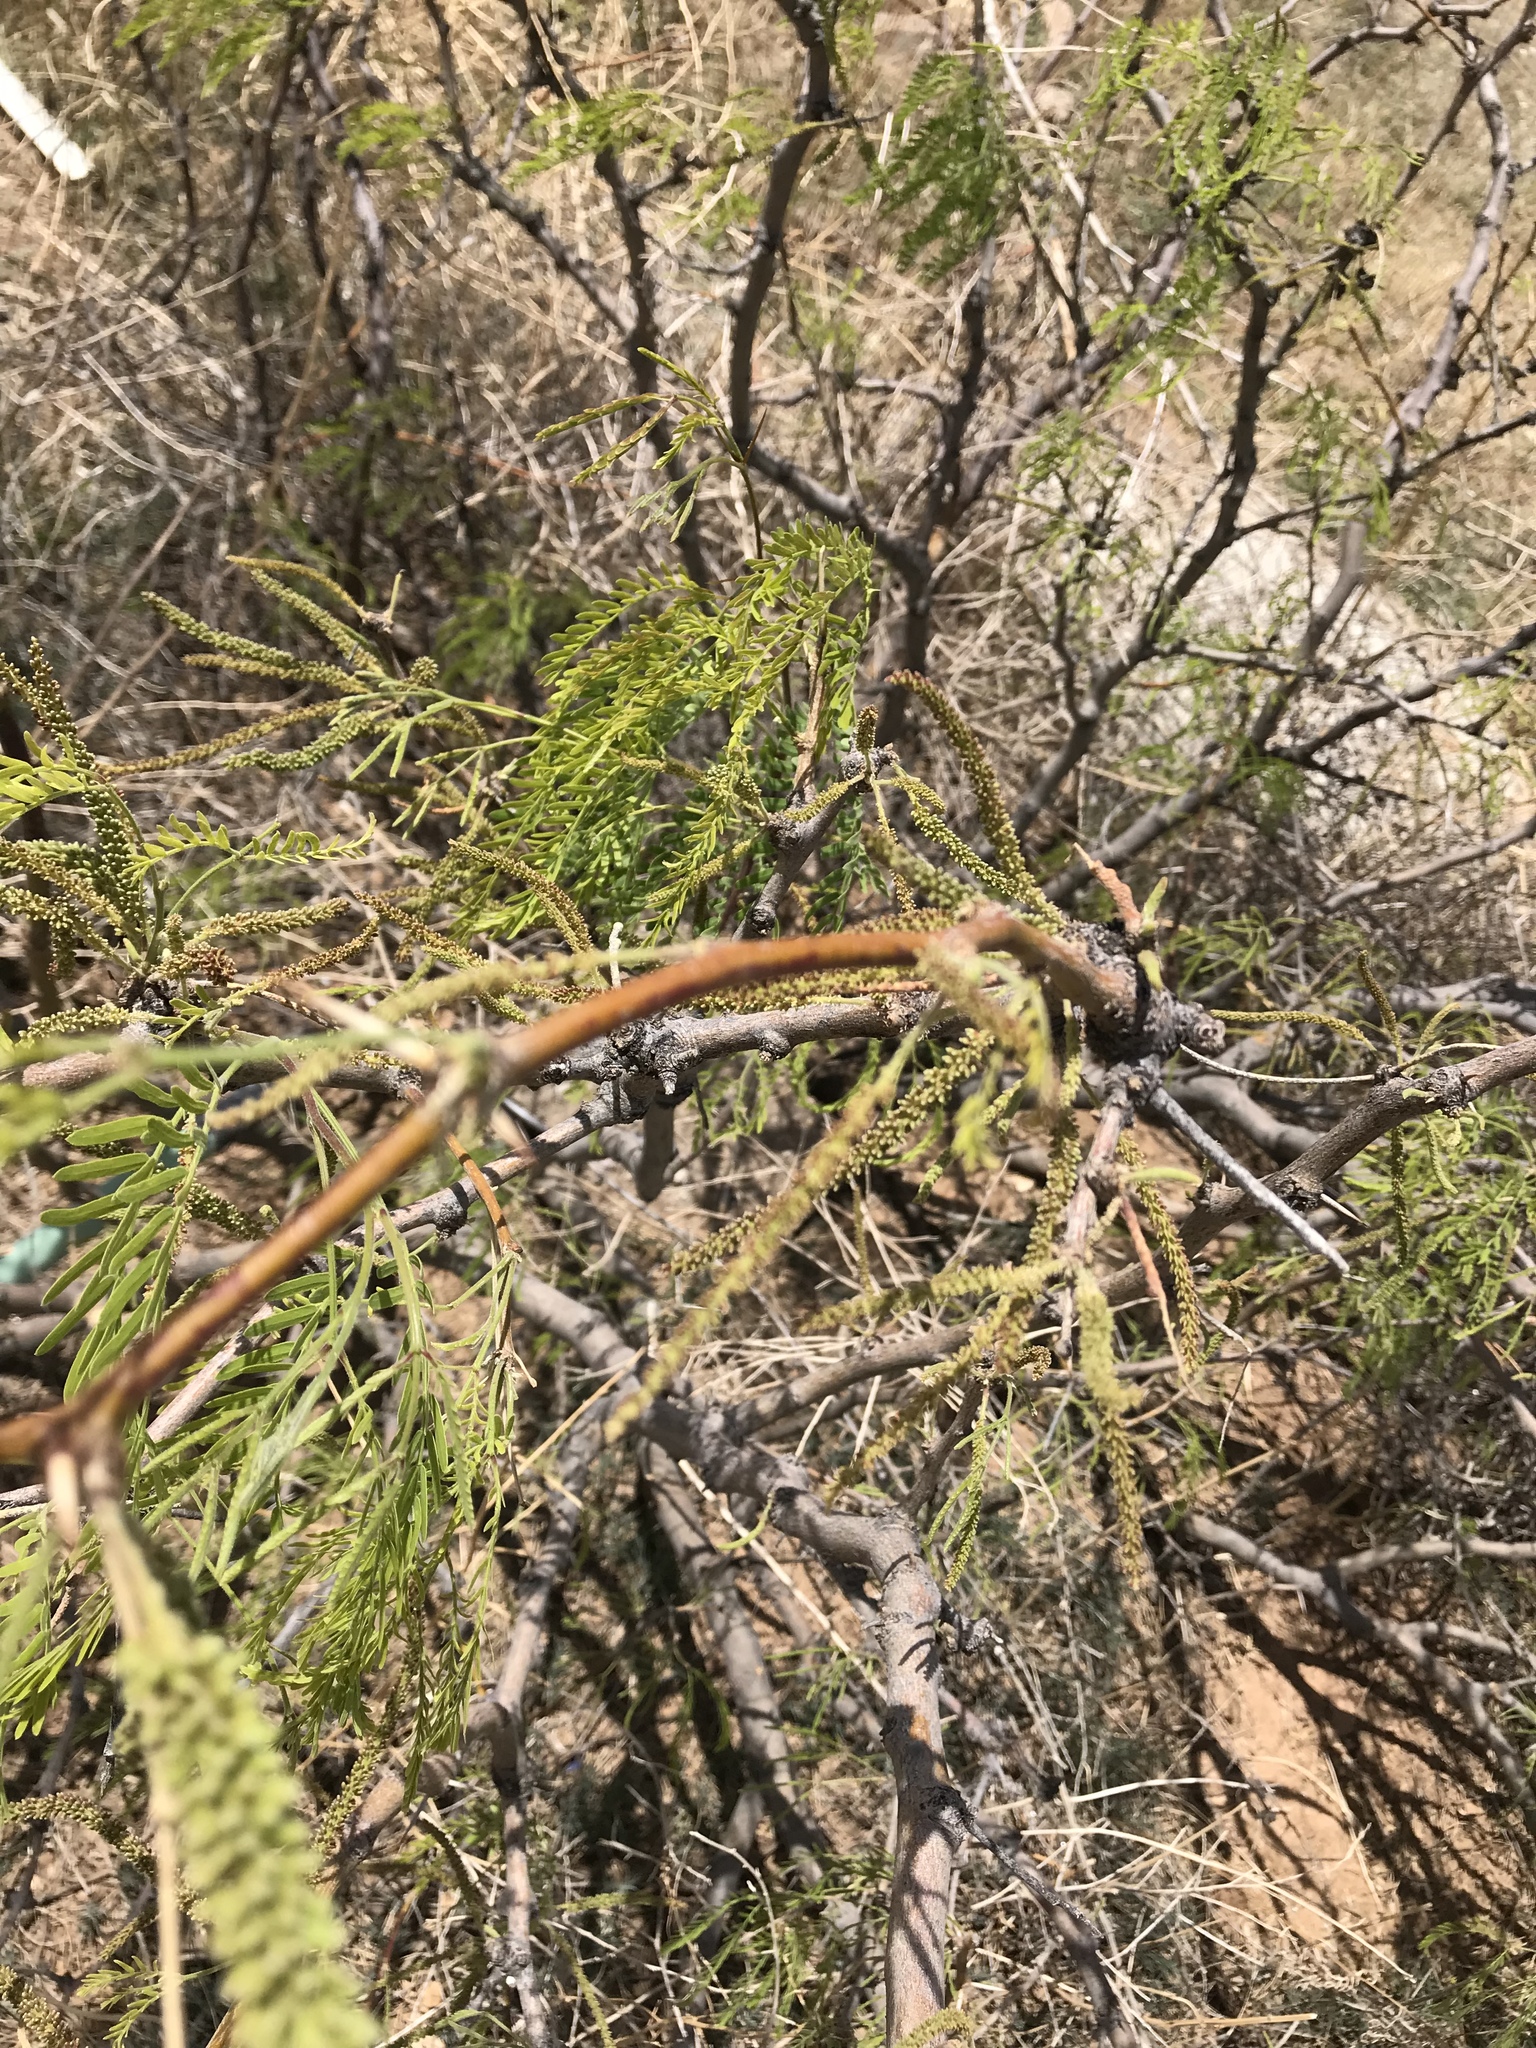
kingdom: Plantae
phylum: Tracheophyta
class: Magnoliopsida
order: Fabales
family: Fabaceae
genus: Prosopis
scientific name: Prosopis glandulosa
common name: Honey mesquite
